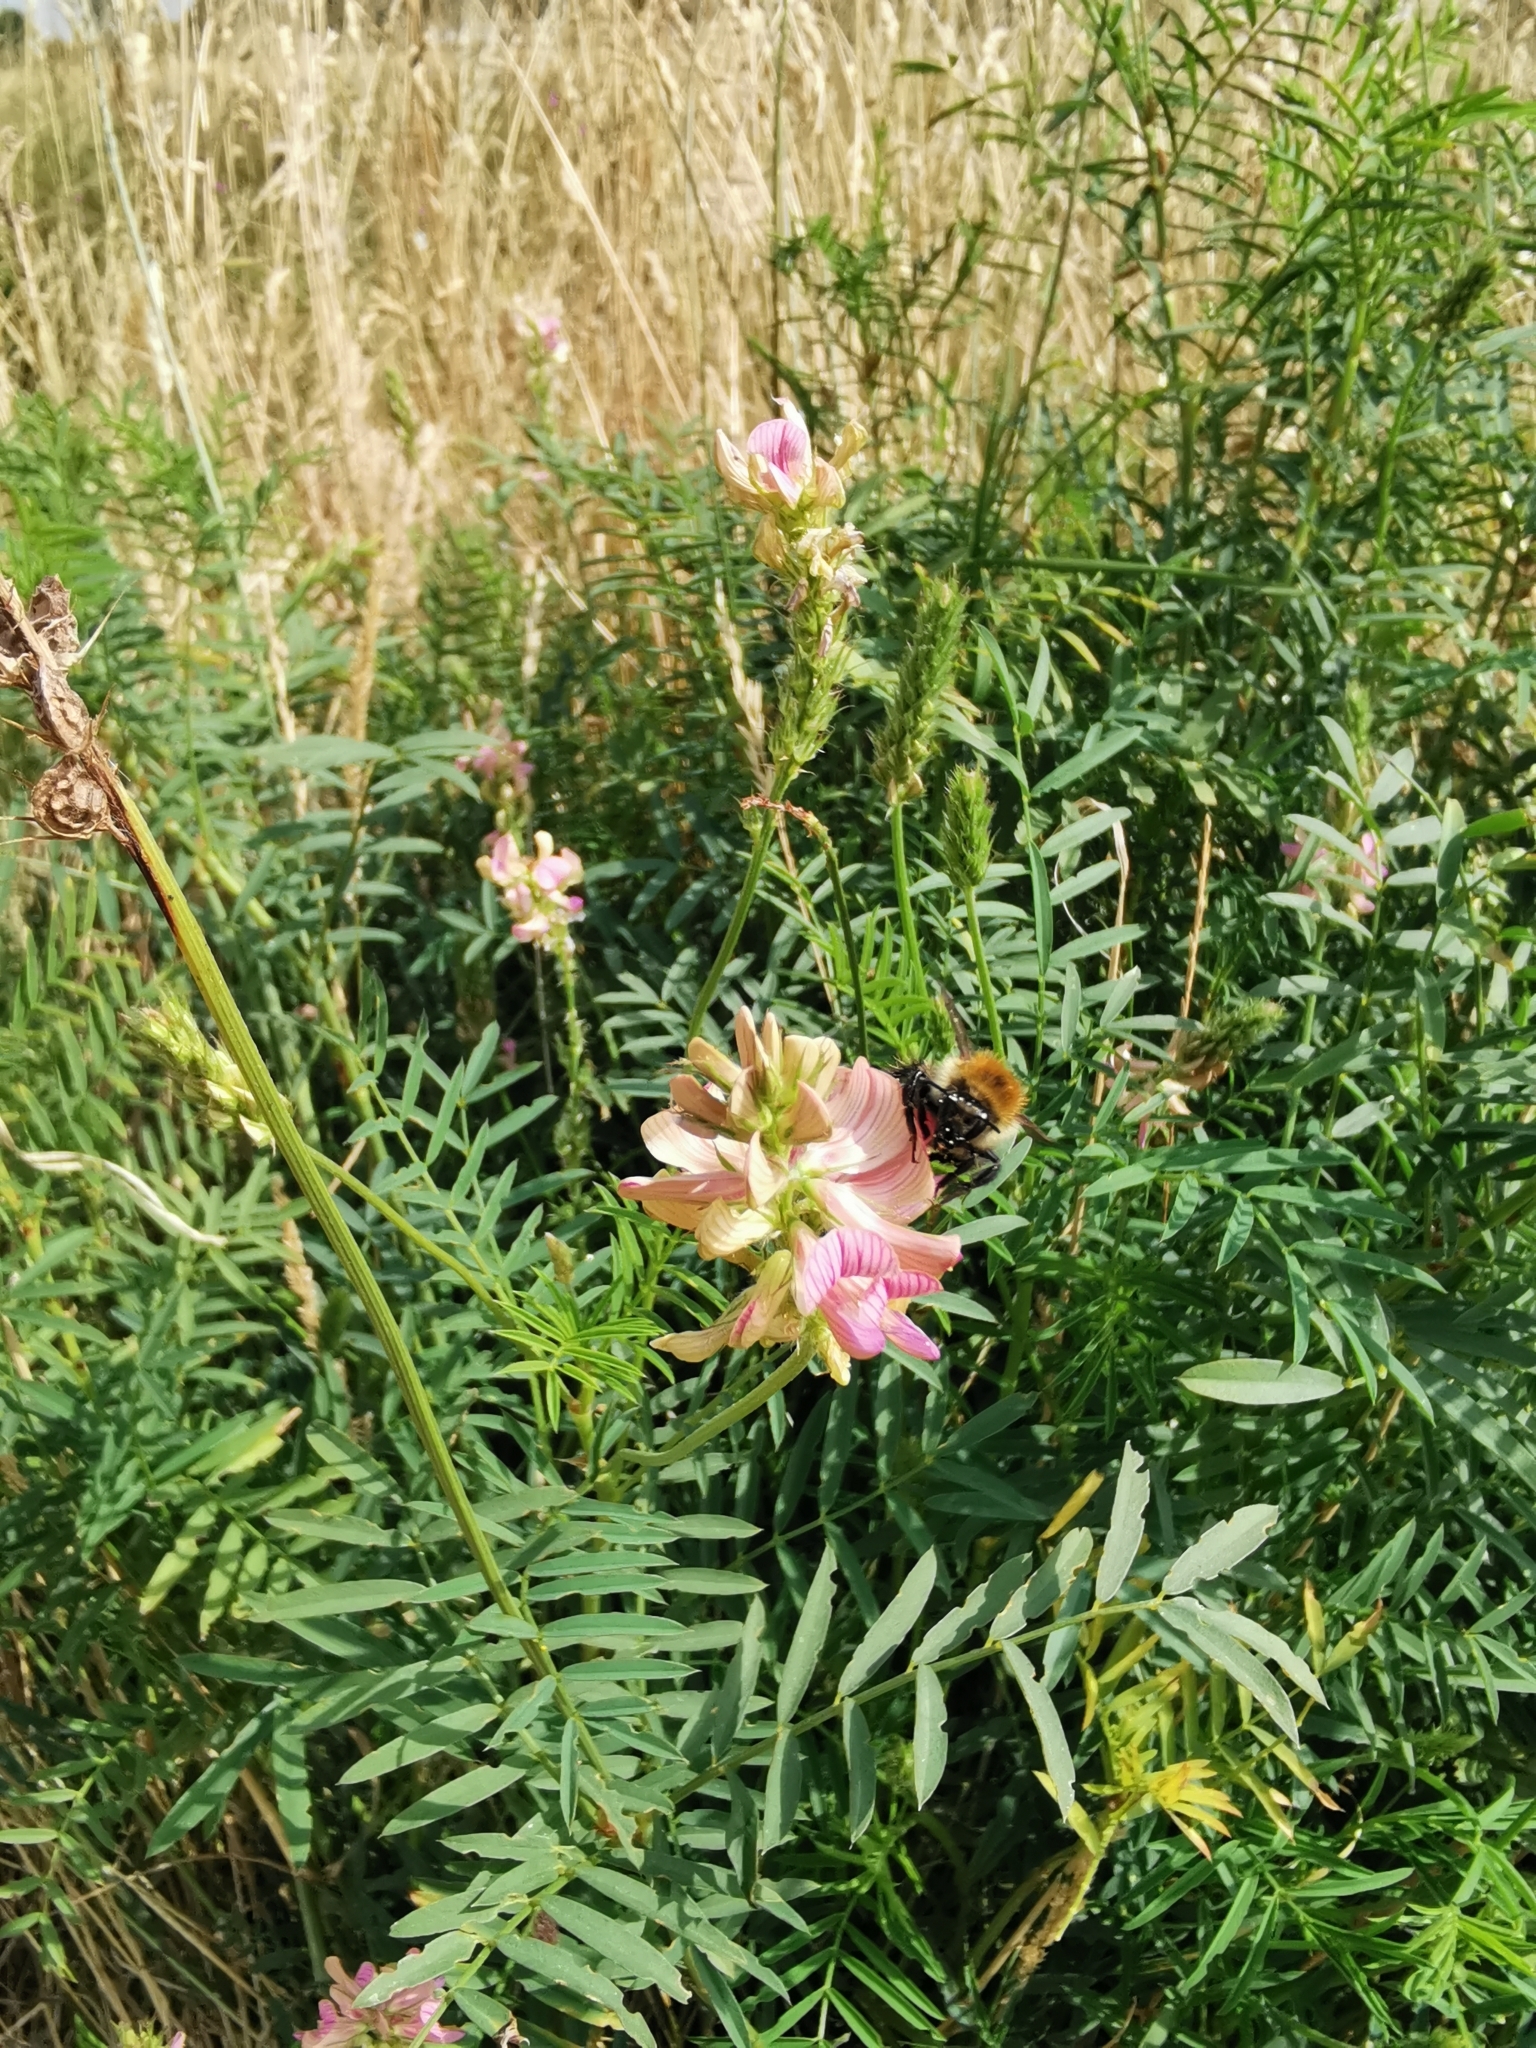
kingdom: Plantae
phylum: Tracheophyta
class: Magnoliopsida
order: Fabales
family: Fabaceae
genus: Onobrychis
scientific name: Onobrychis viciifolia
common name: Sainfoin
